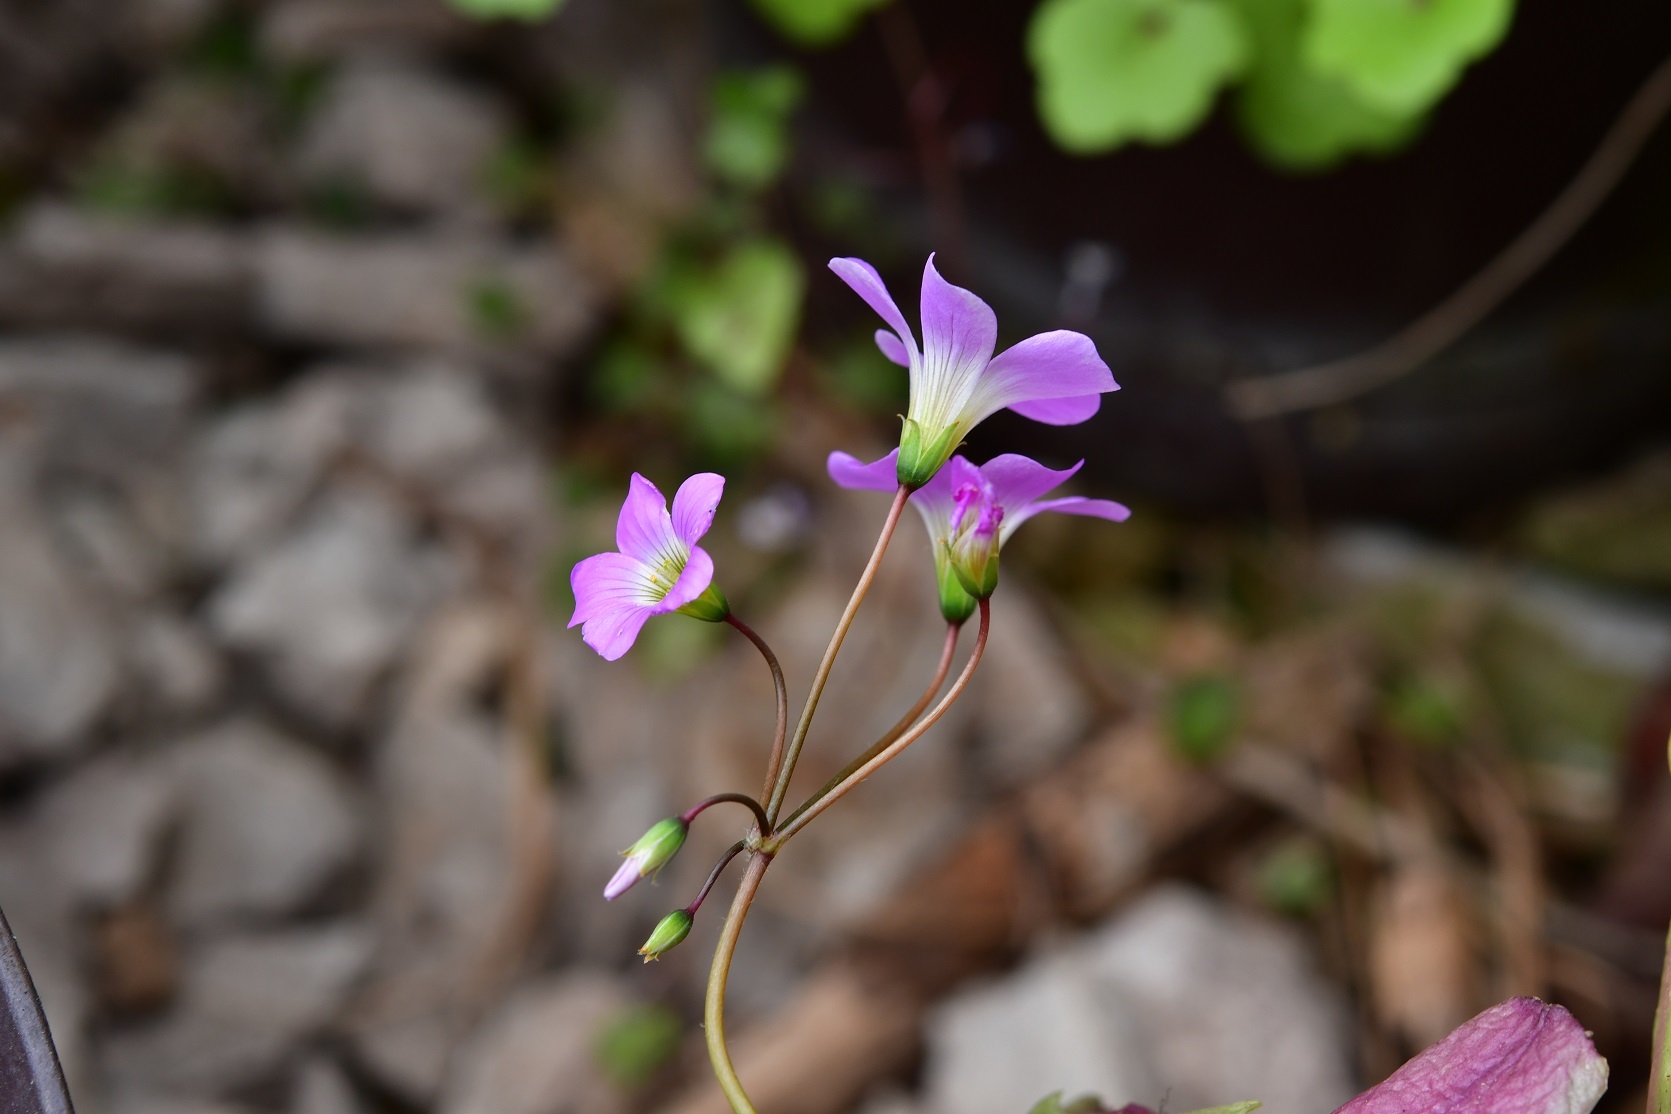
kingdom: Plantae
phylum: Tracheophyta
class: Magnoliopsida
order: Oxalidales
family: Oxalidaceae
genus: Oxalis
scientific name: Oxalis latifolia
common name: Garden pink-sorrel
